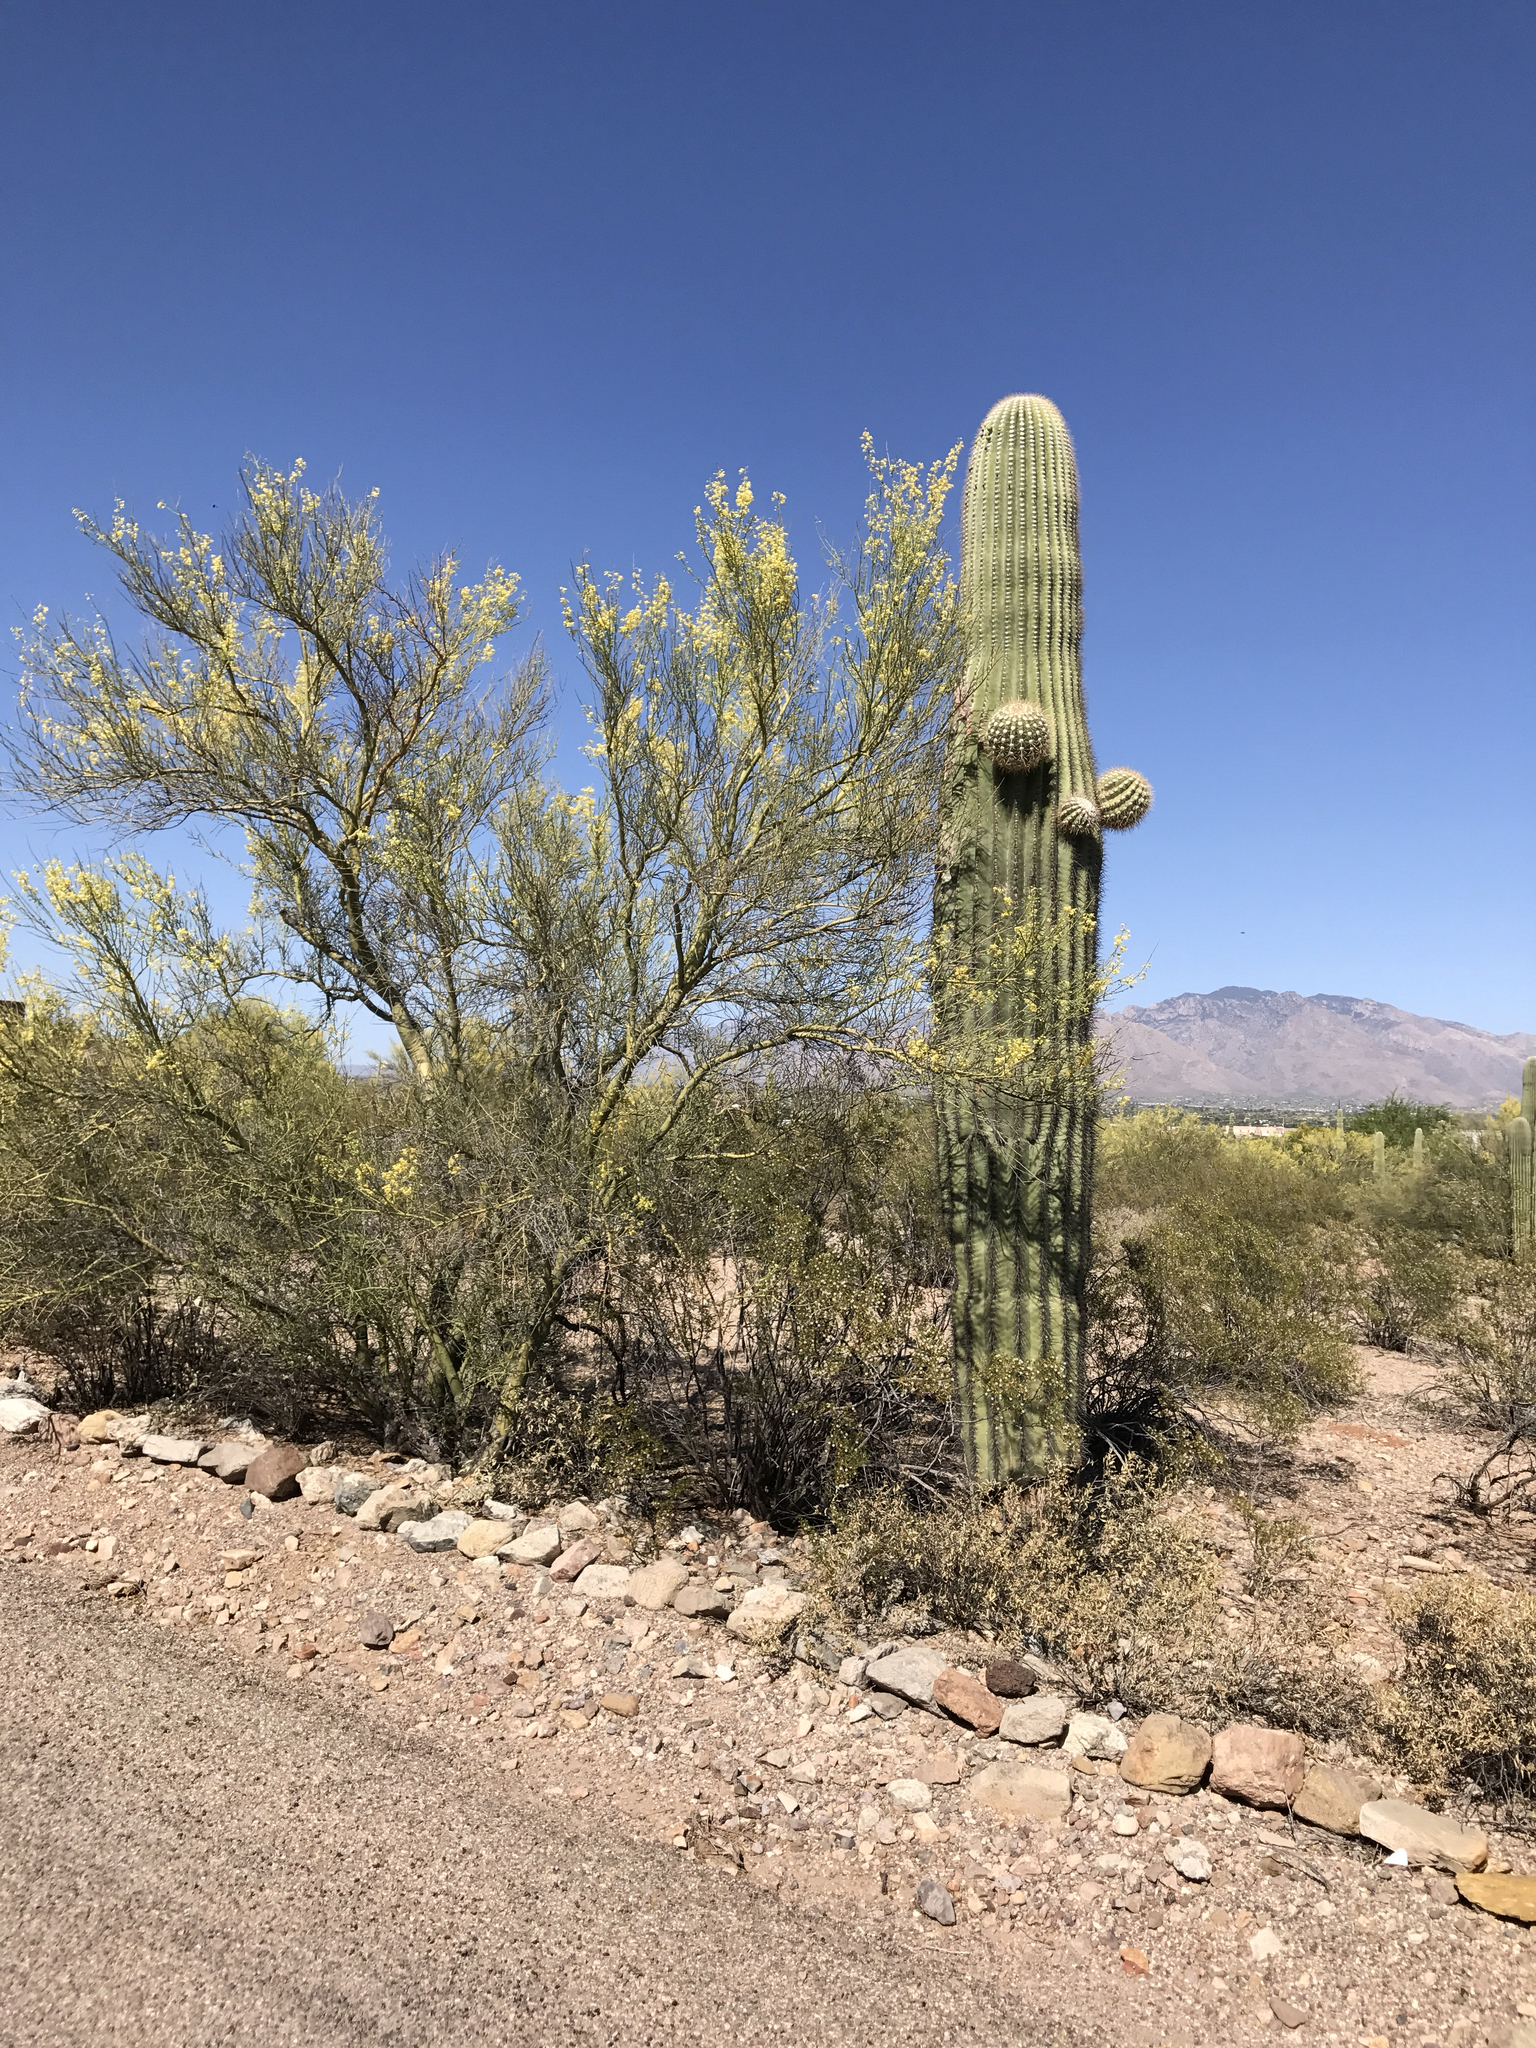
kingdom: Plantae
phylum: Tracheophyta
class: Magnoliopsida
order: Caryophyllales
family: Cactaceae
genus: Carnegiea
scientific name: Carnegiea gigantea
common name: Saguaro
